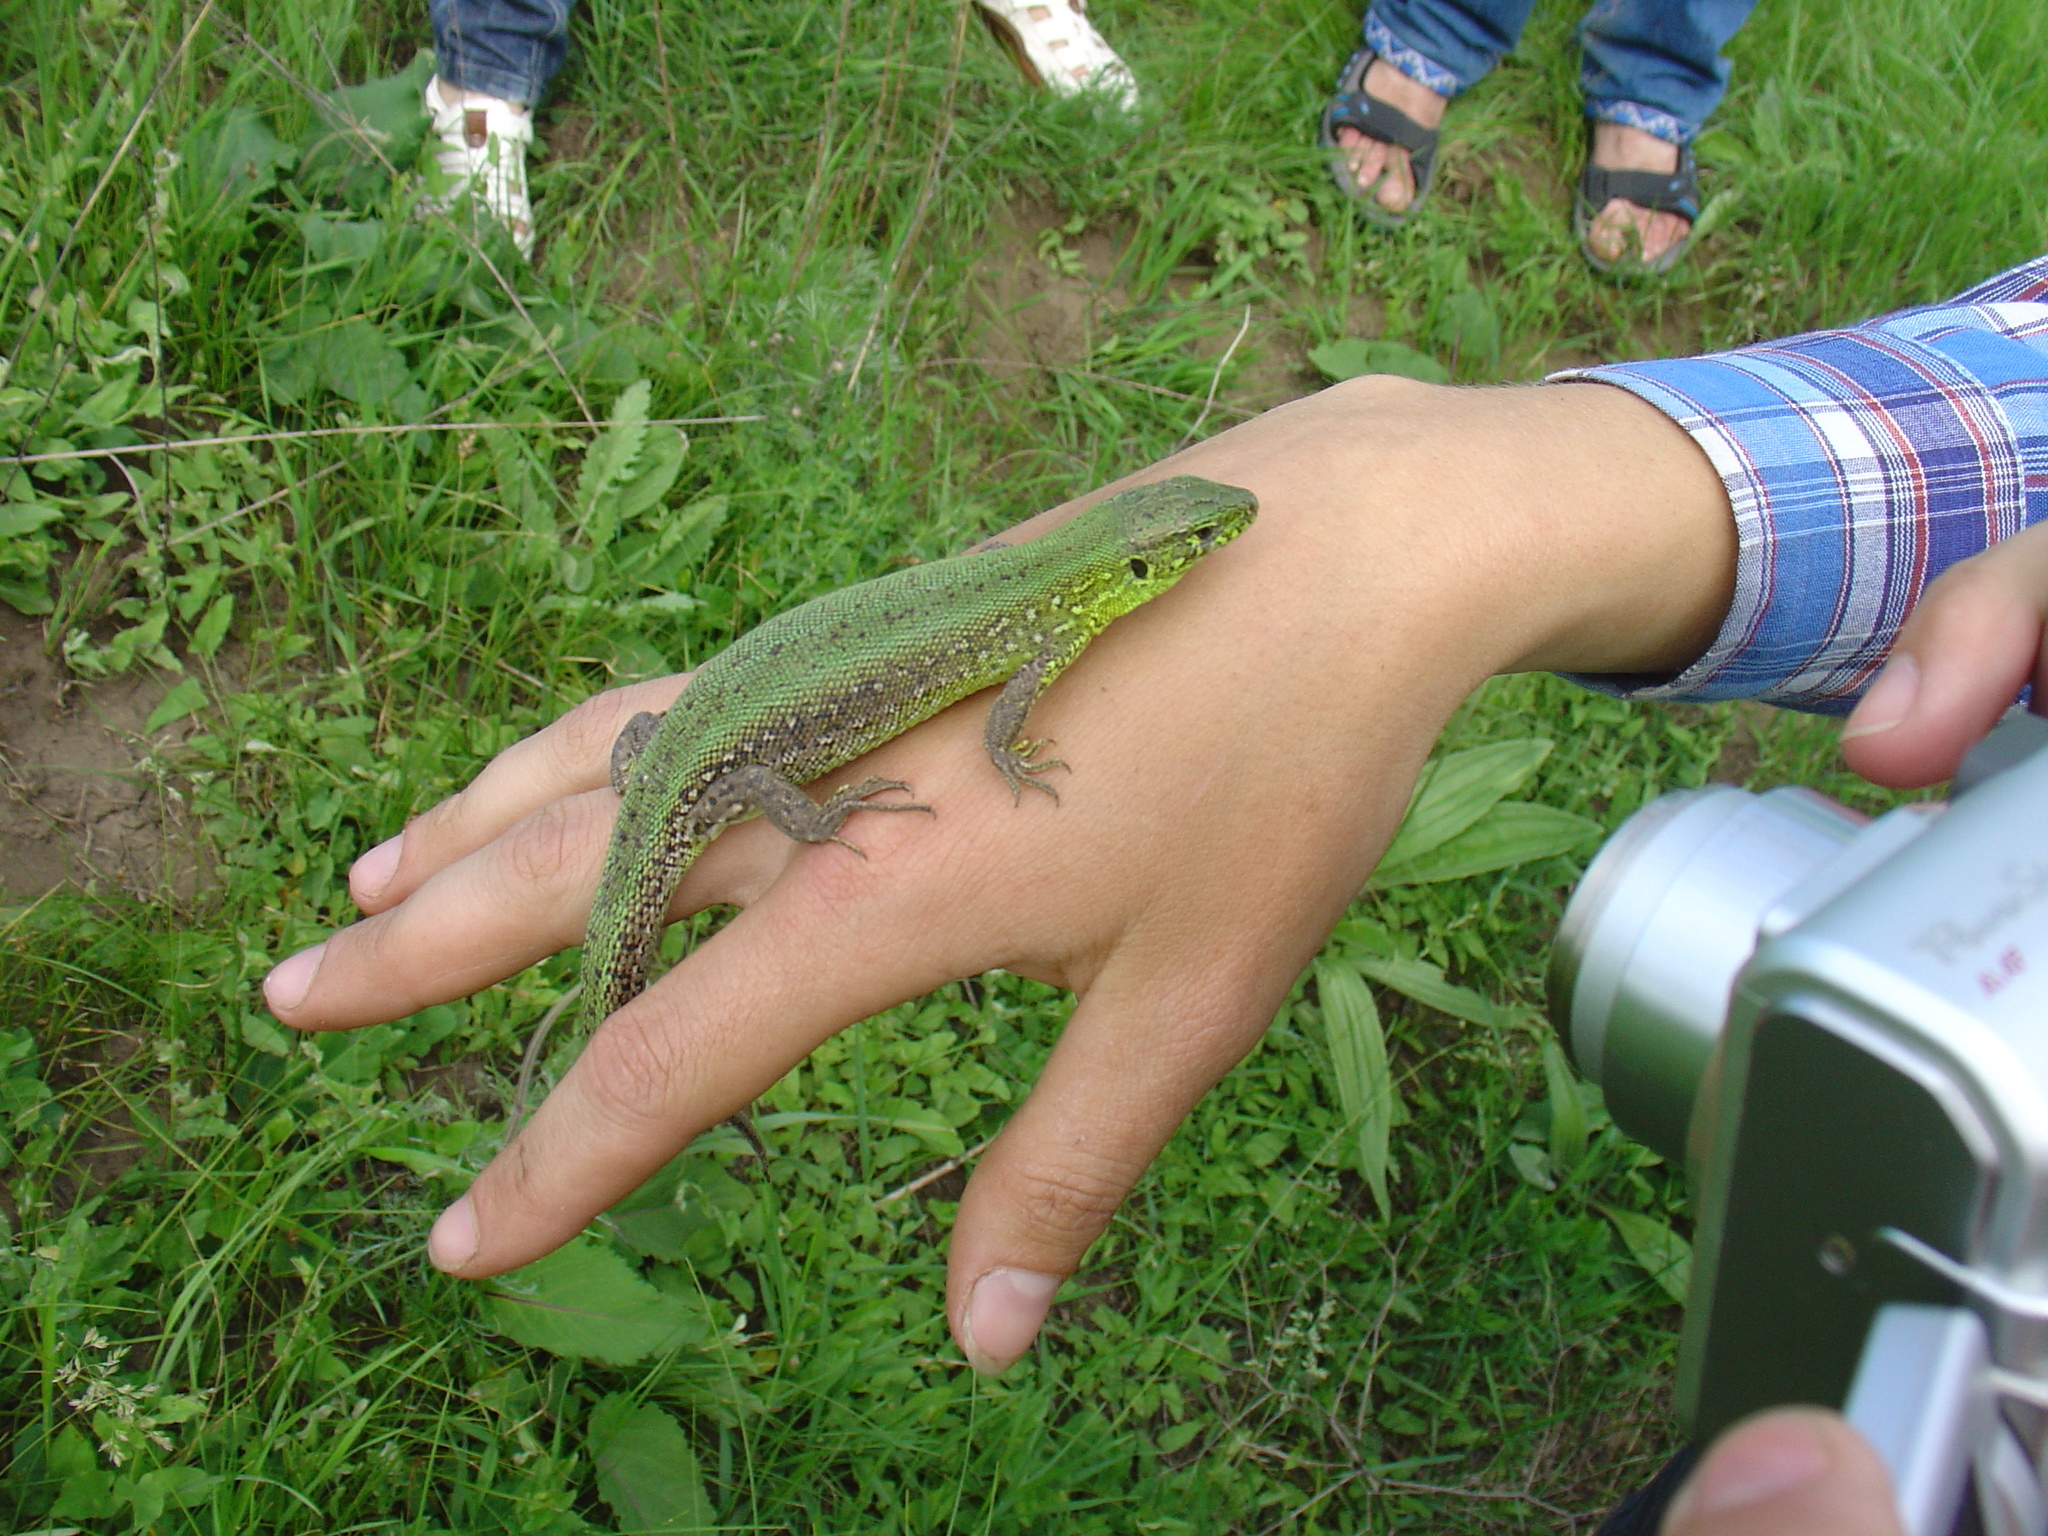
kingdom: Animalia
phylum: Chordata
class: Squamata
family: Lacertidae
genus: Lacerta
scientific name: Lacerta agilis
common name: Sand lizard
